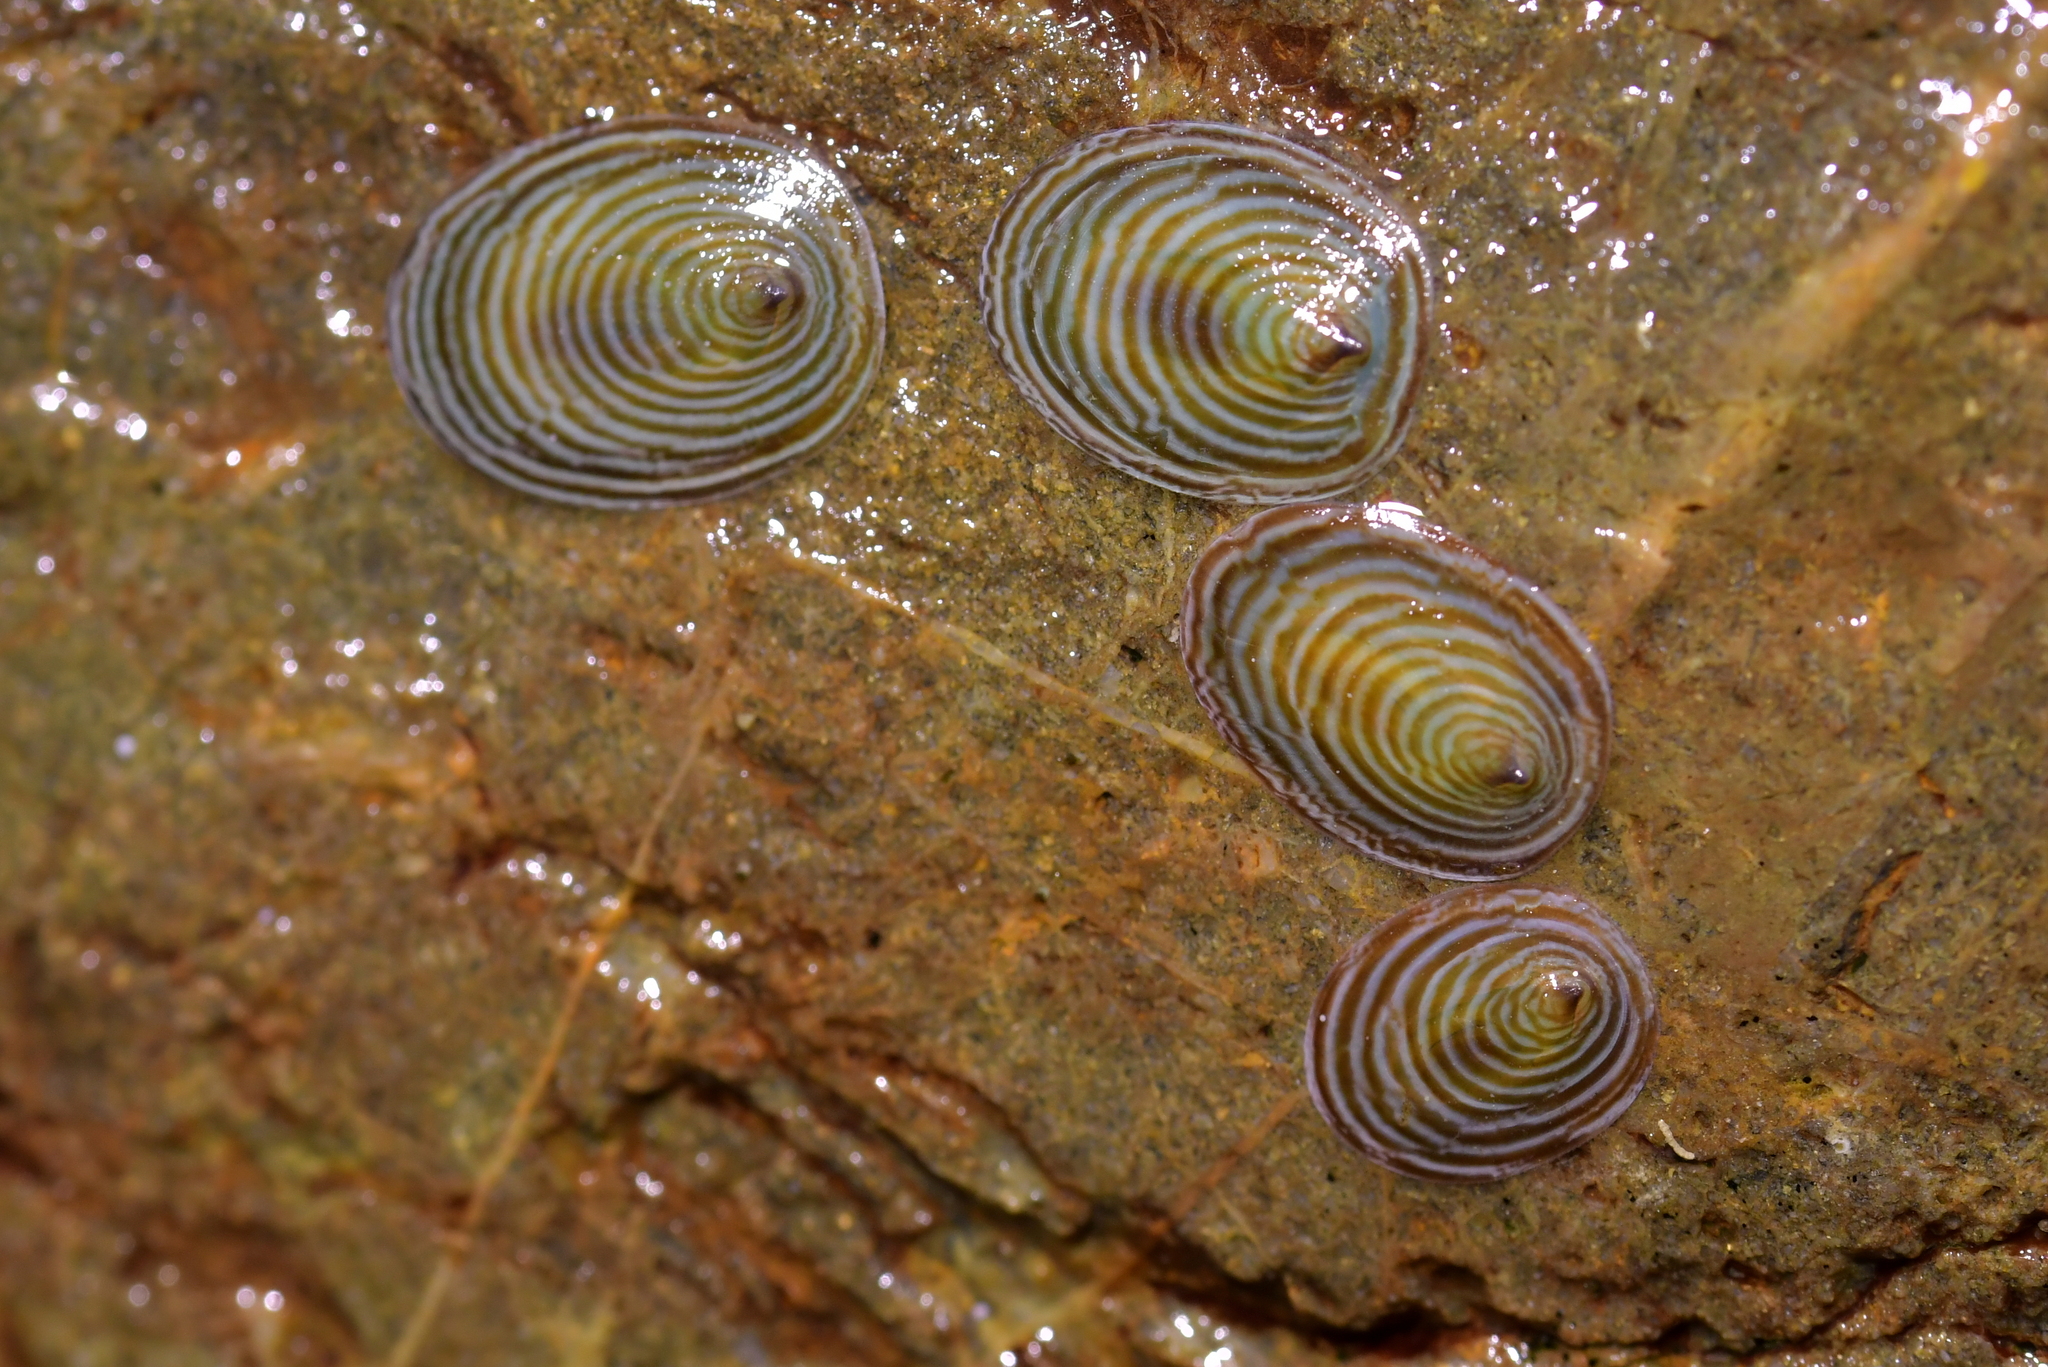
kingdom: Animalia
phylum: Mollusca
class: Gastropoda
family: Lottiidae
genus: Atalacmea
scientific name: Atalacmea fragilis
